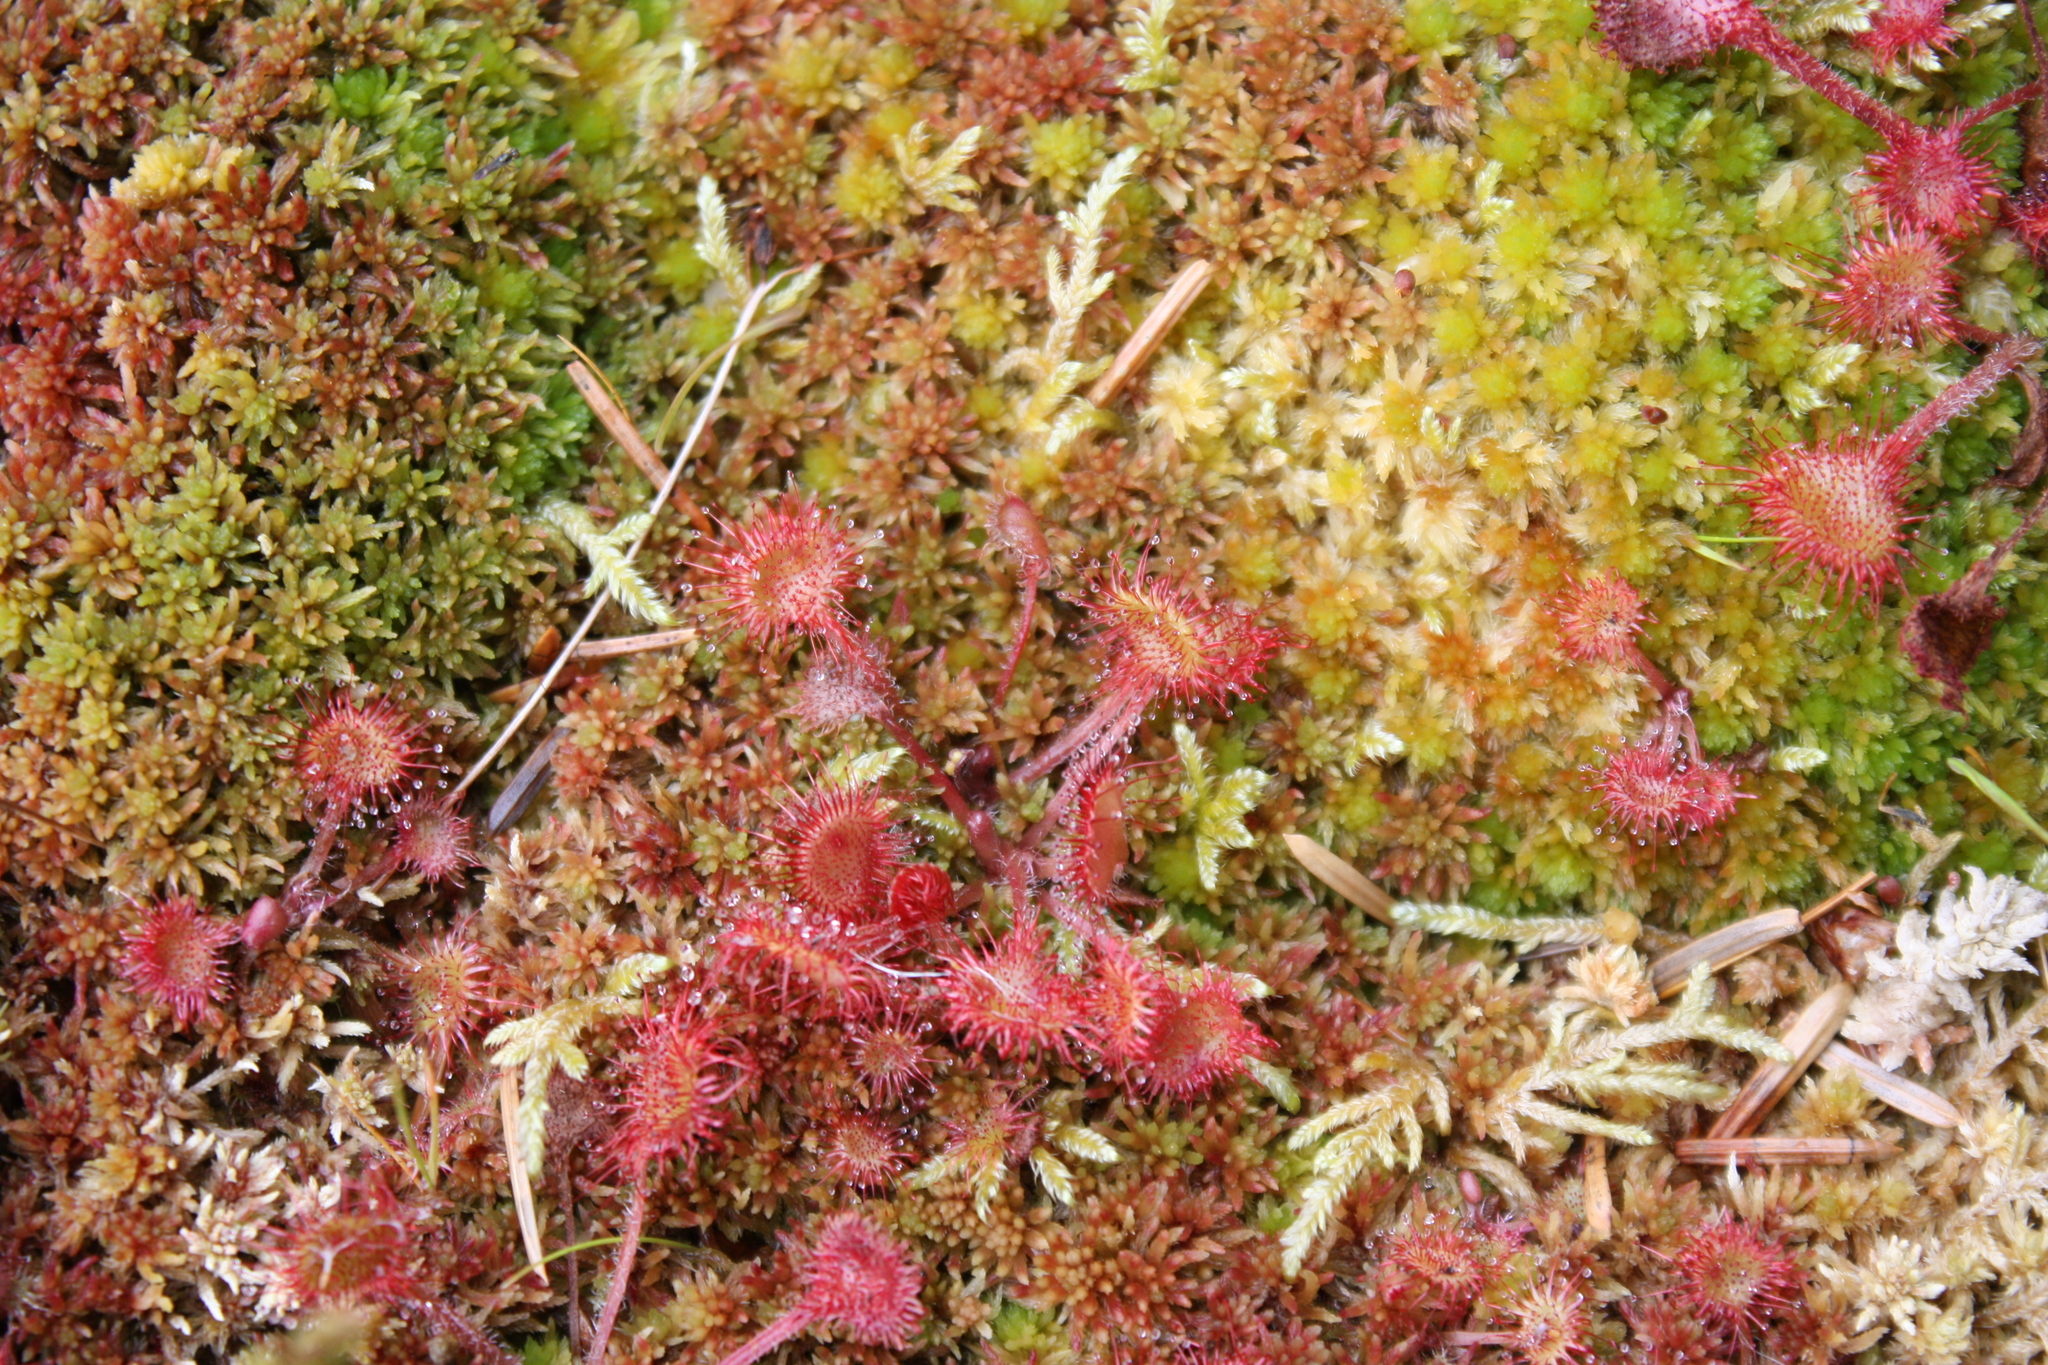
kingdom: Plantae
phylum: Tracheophyta
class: Magnoliopsida
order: Caryophyllales
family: Droseraceae
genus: Drosera
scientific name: Drosera rotundifolia
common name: Round-leaved sundew
